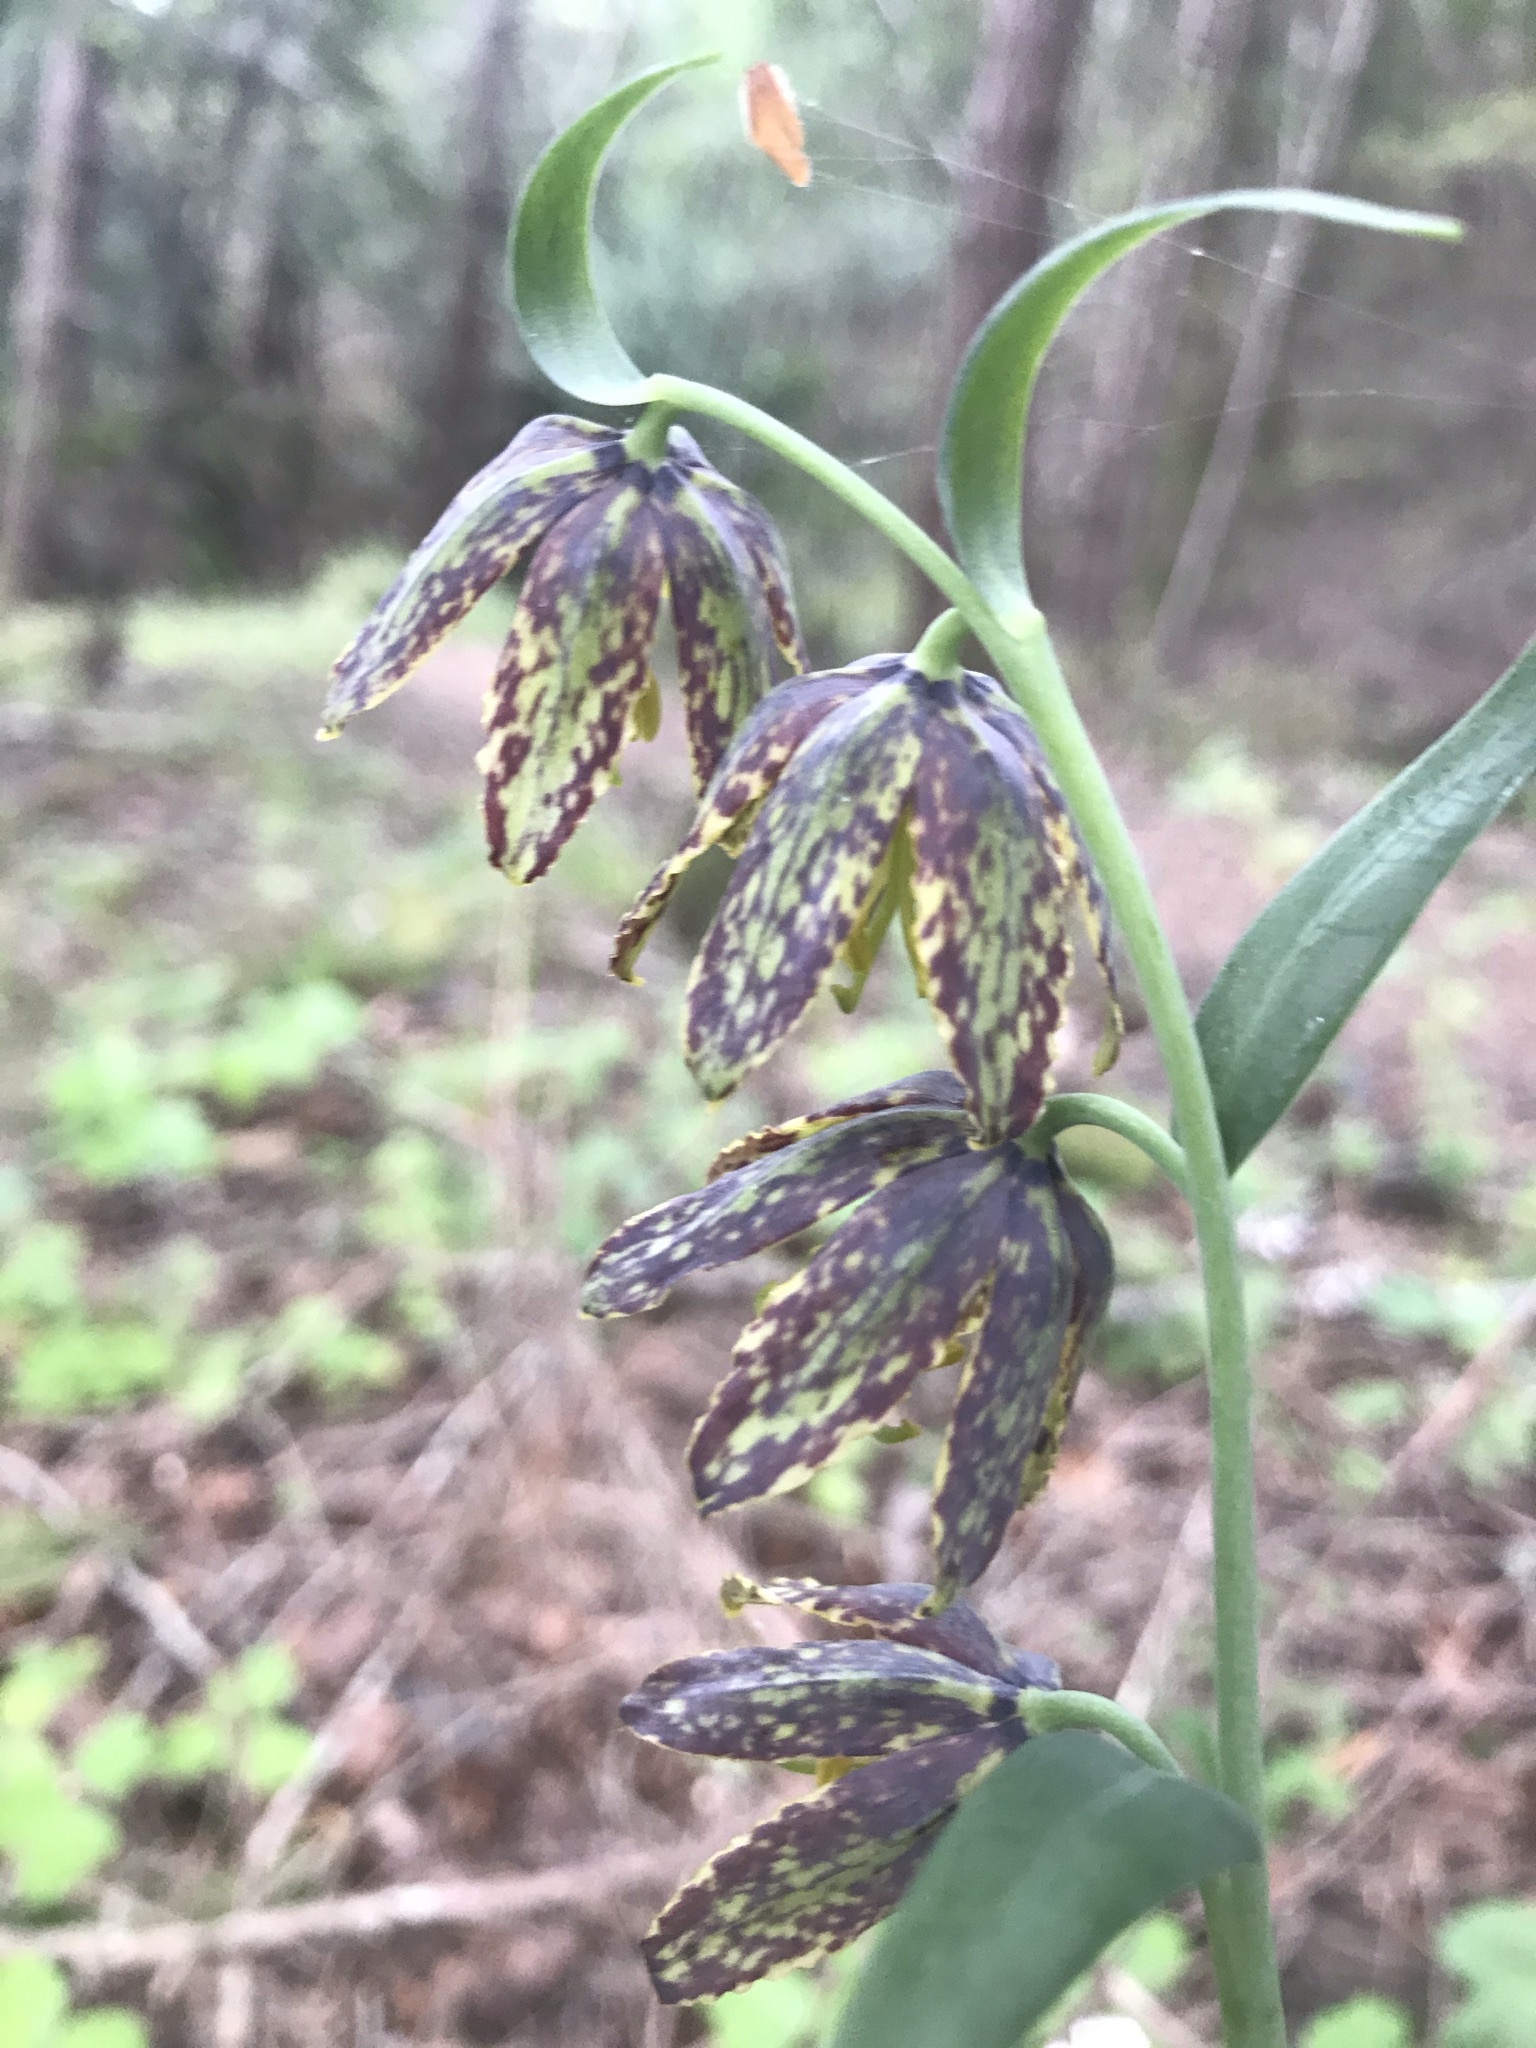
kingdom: Plantae
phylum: Tracheophyta
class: Liliopsida
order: Liliales
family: Liliaceae
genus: Fritillaria
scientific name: Fritillaria affinis
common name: Ojai fritillary
